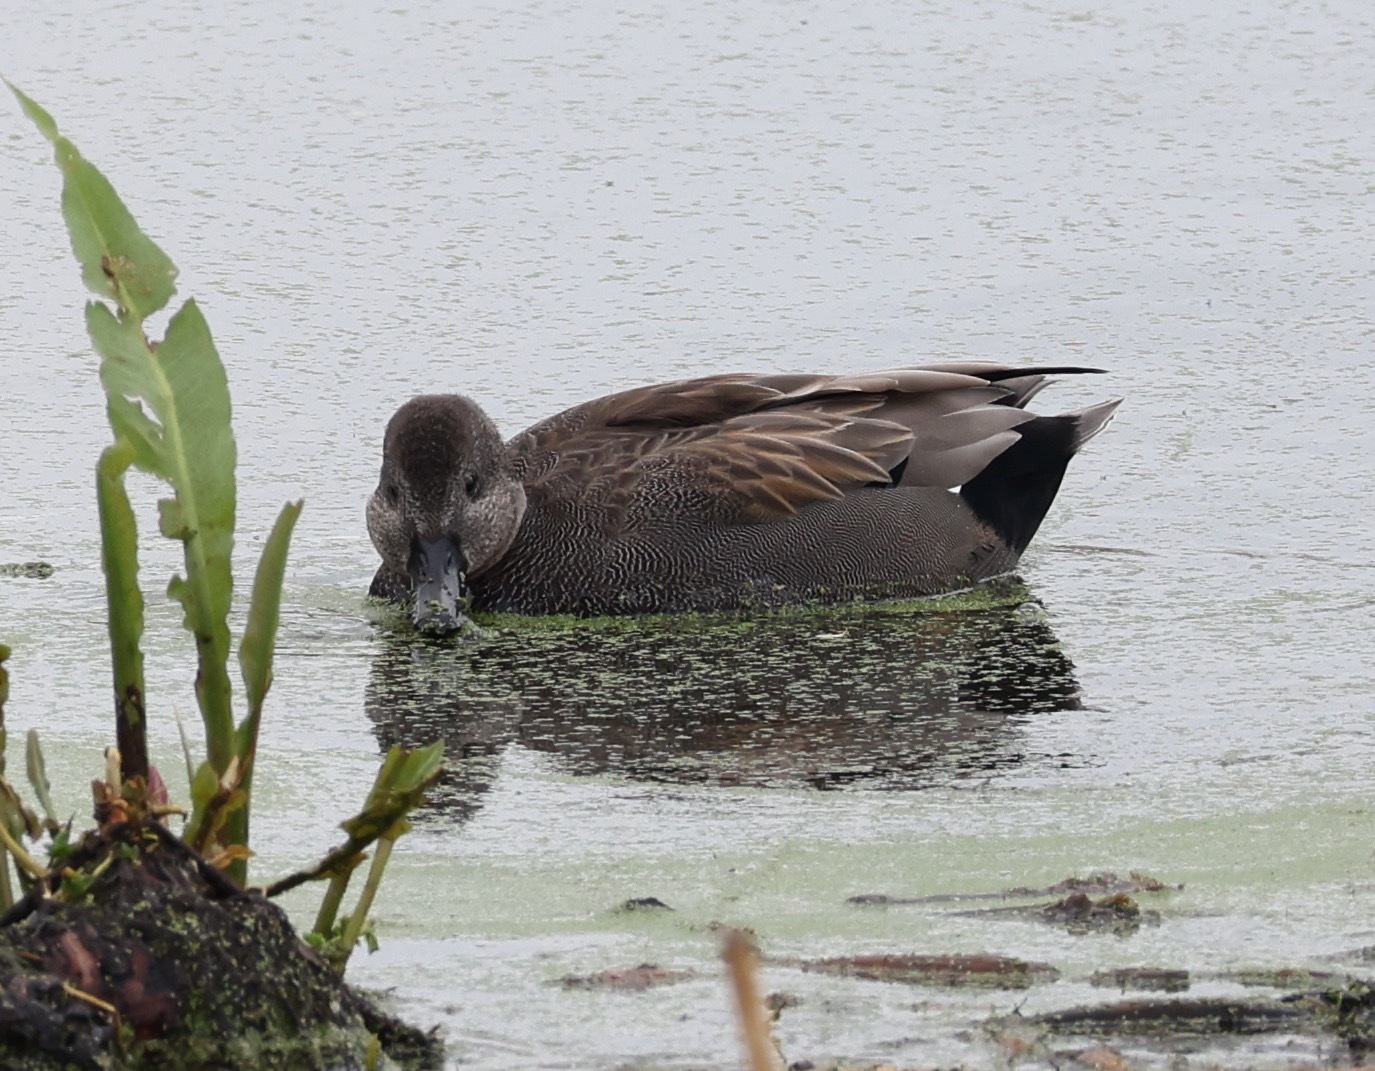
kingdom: Animalia
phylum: Chordata
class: Aves
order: Anseriformes
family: Anatidae
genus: Mareca
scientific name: Mareca strepera
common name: Gadwall
